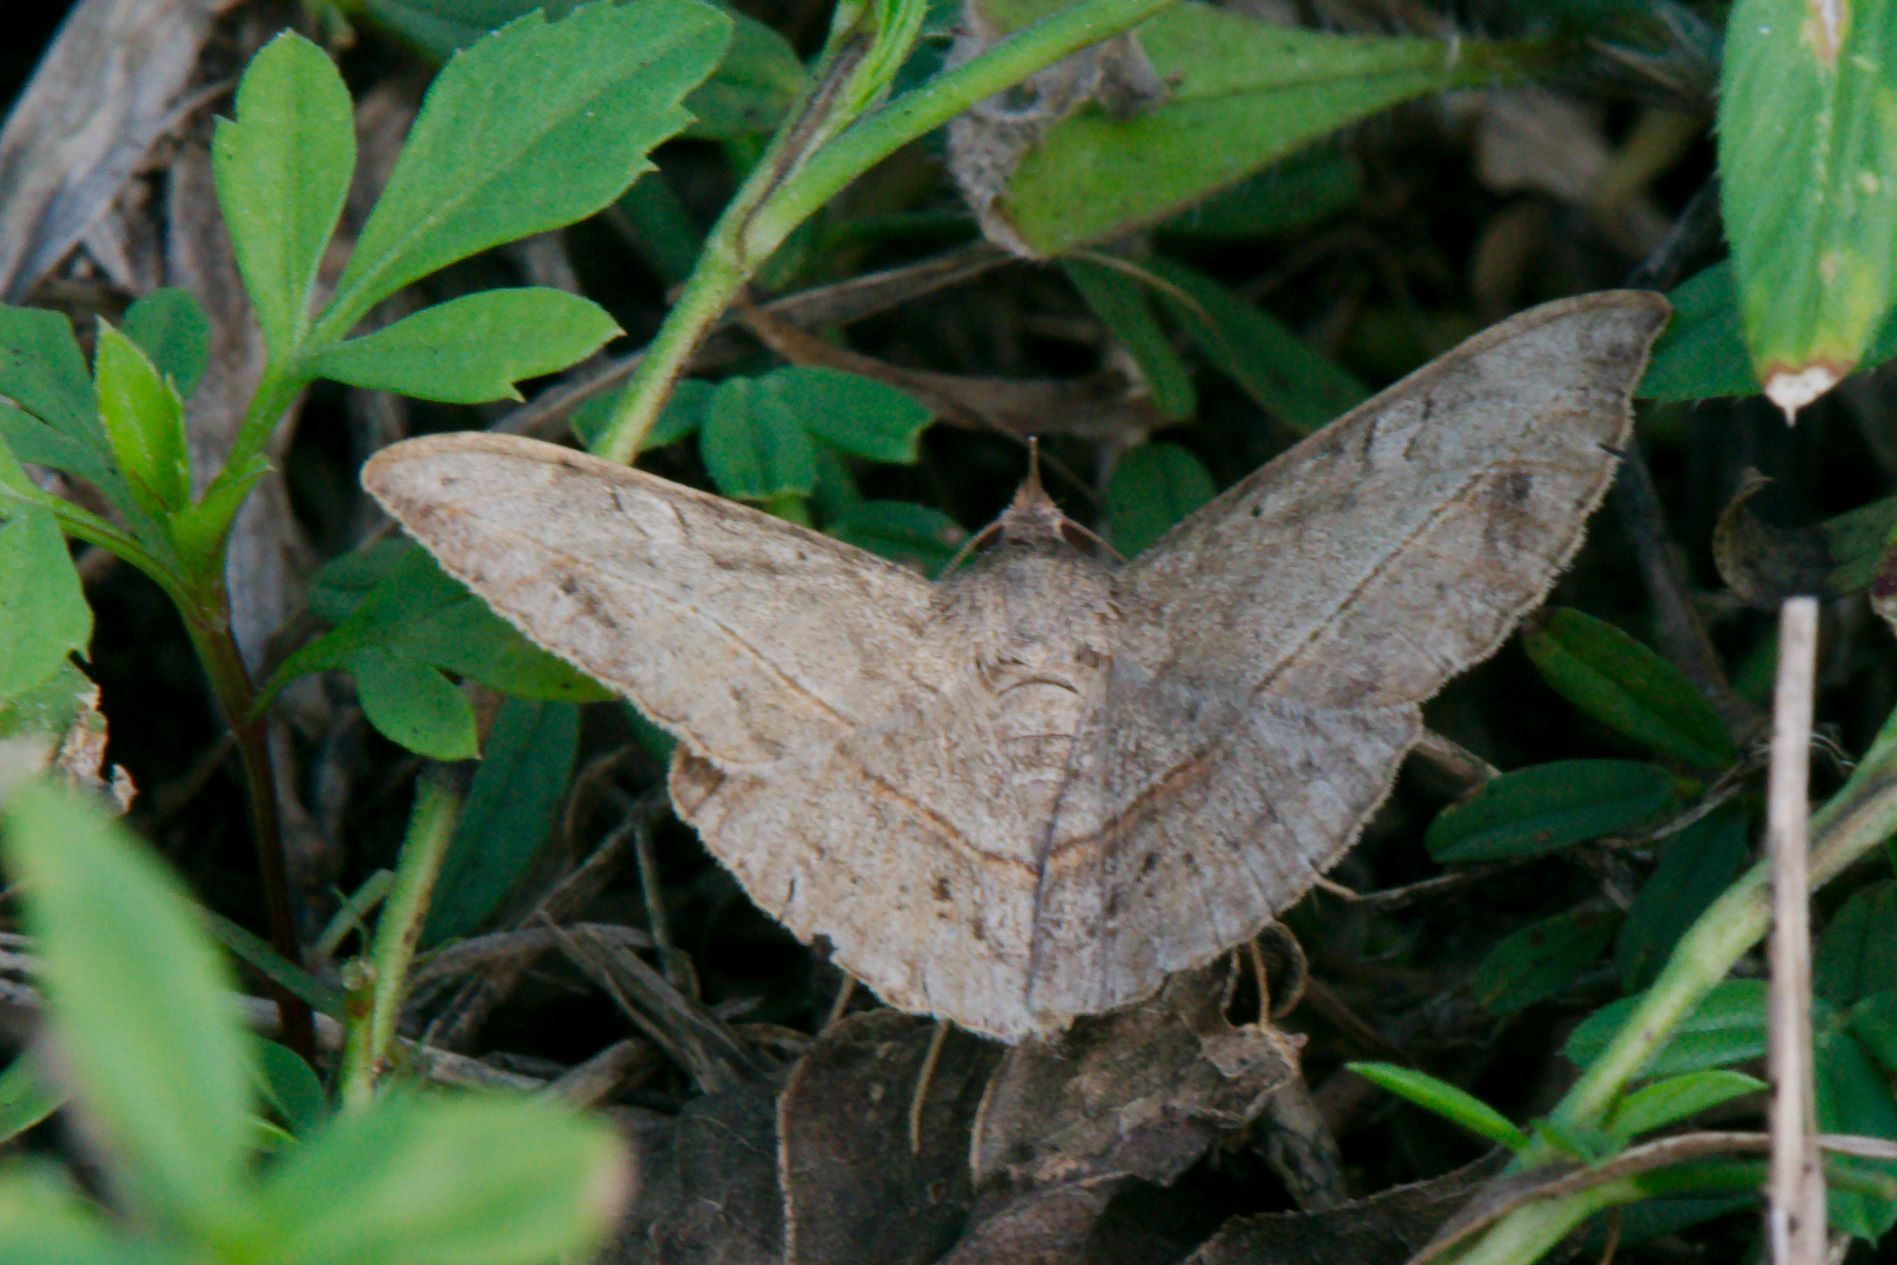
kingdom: Animalia
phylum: Arthropoda
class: Insecta
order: Lepidoptera
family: Erebidae
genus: Anticarsia
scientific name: Anticarsia gemmatalis
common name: Cutworm moth
